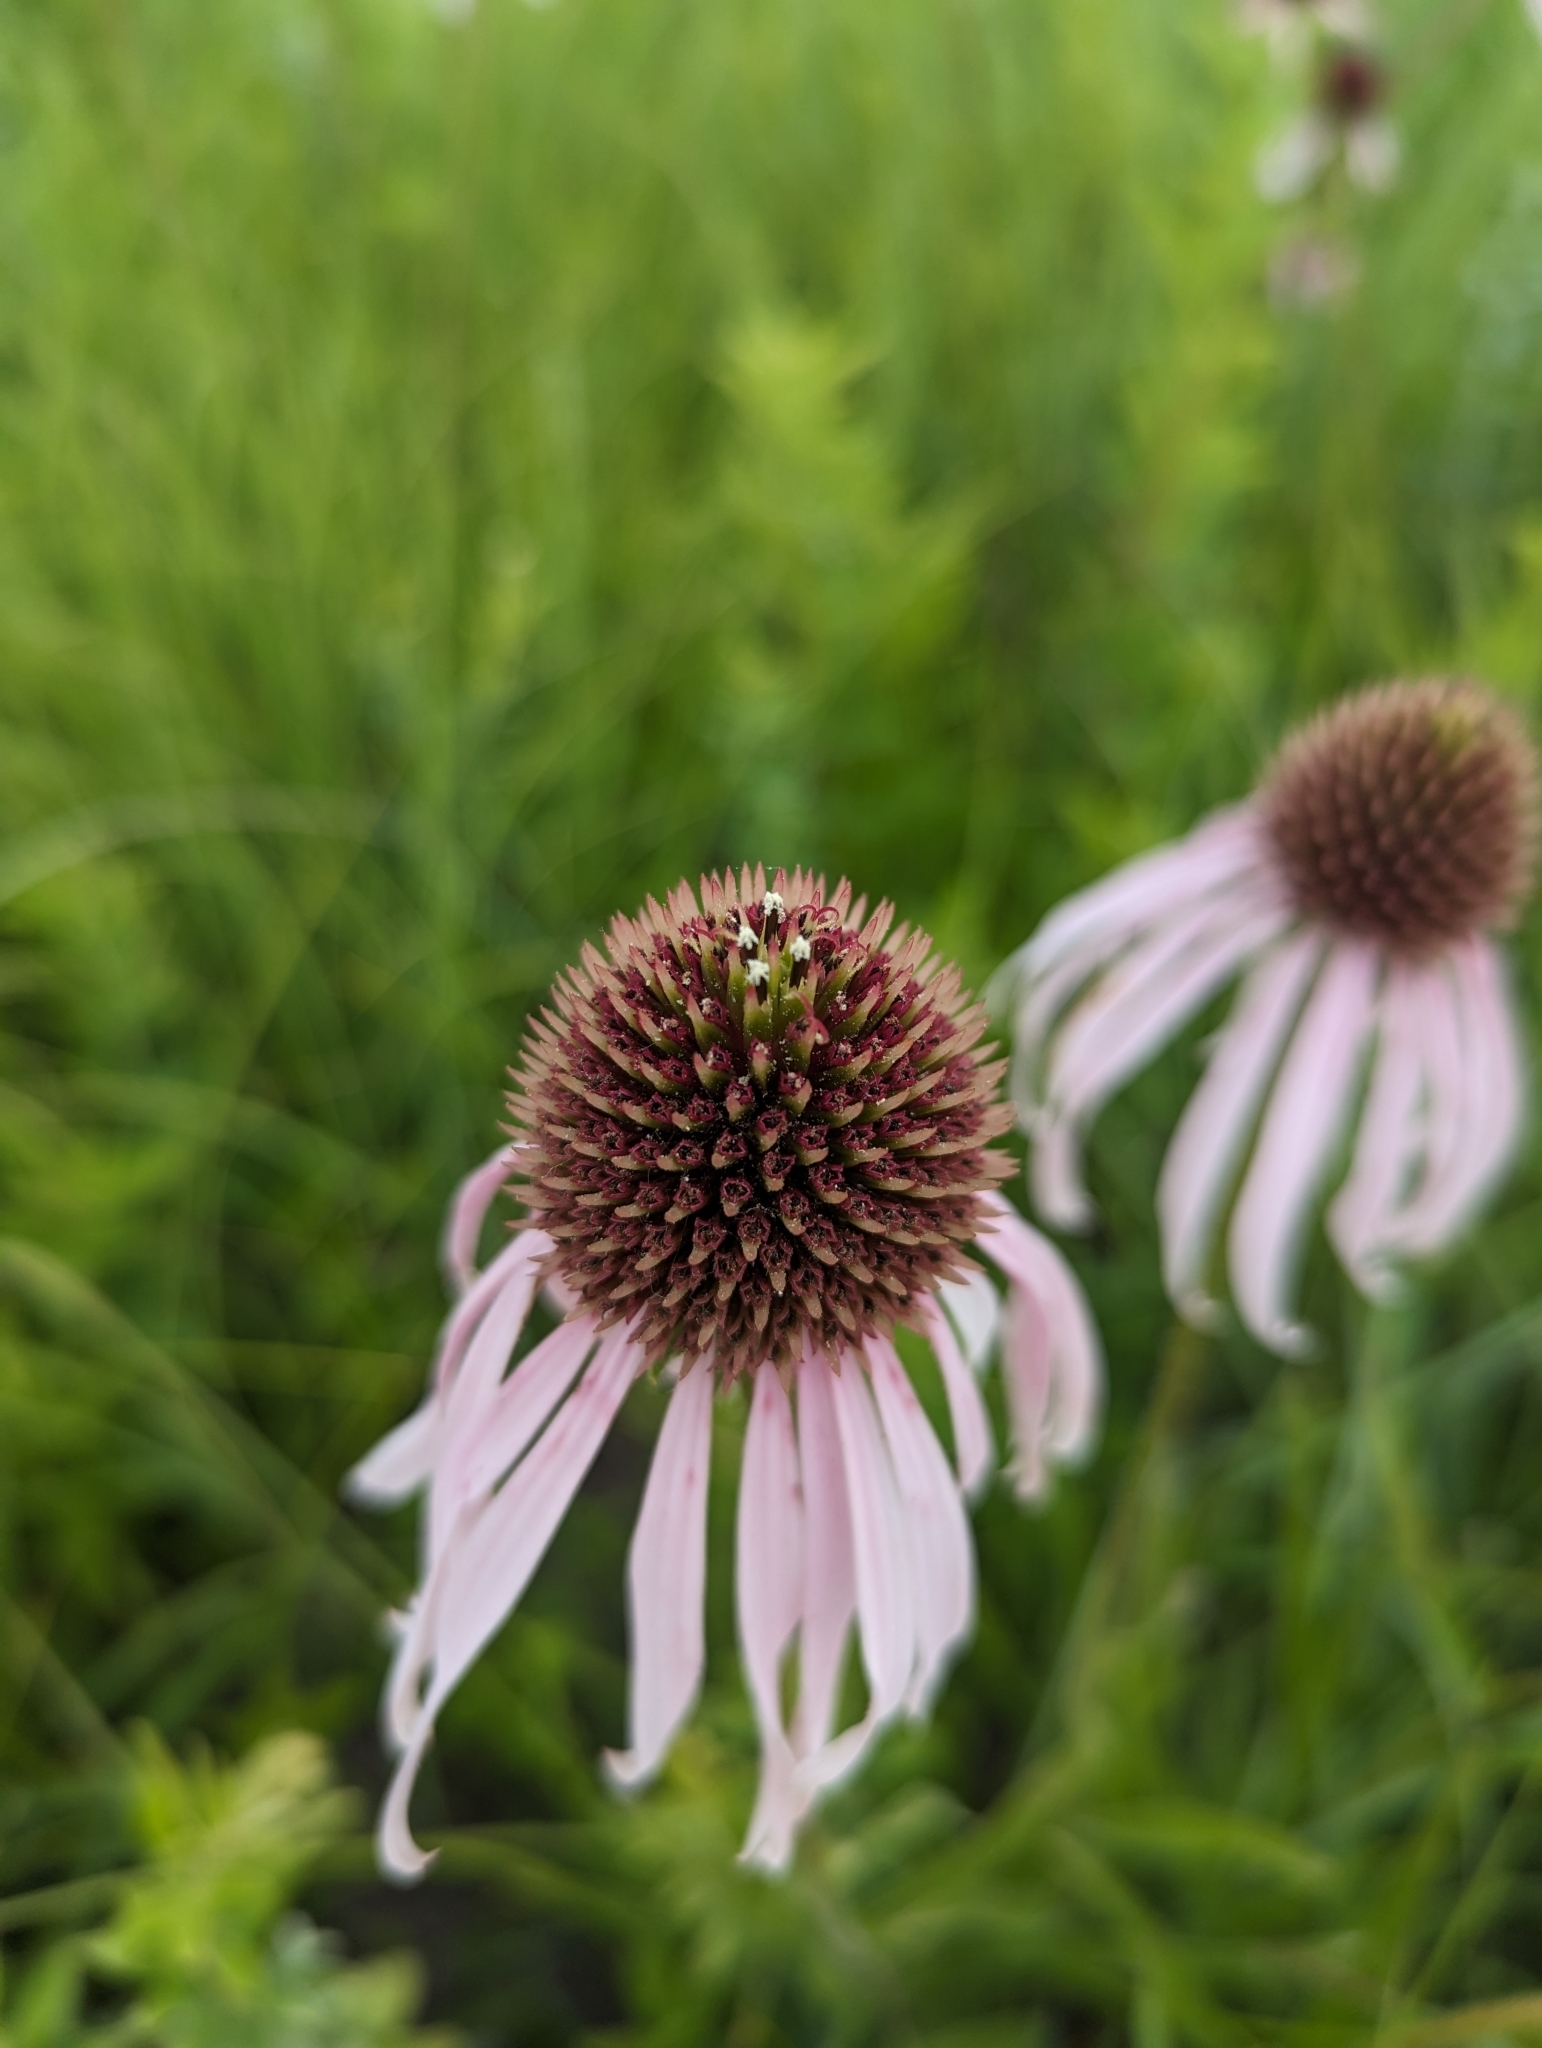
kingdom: Plantae
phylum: Tracheophyta
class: Magnoliopsida
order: Asterales
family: Asteraceae
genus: Echinacea
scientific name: Echinacea pallida
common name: Pale echinacea
